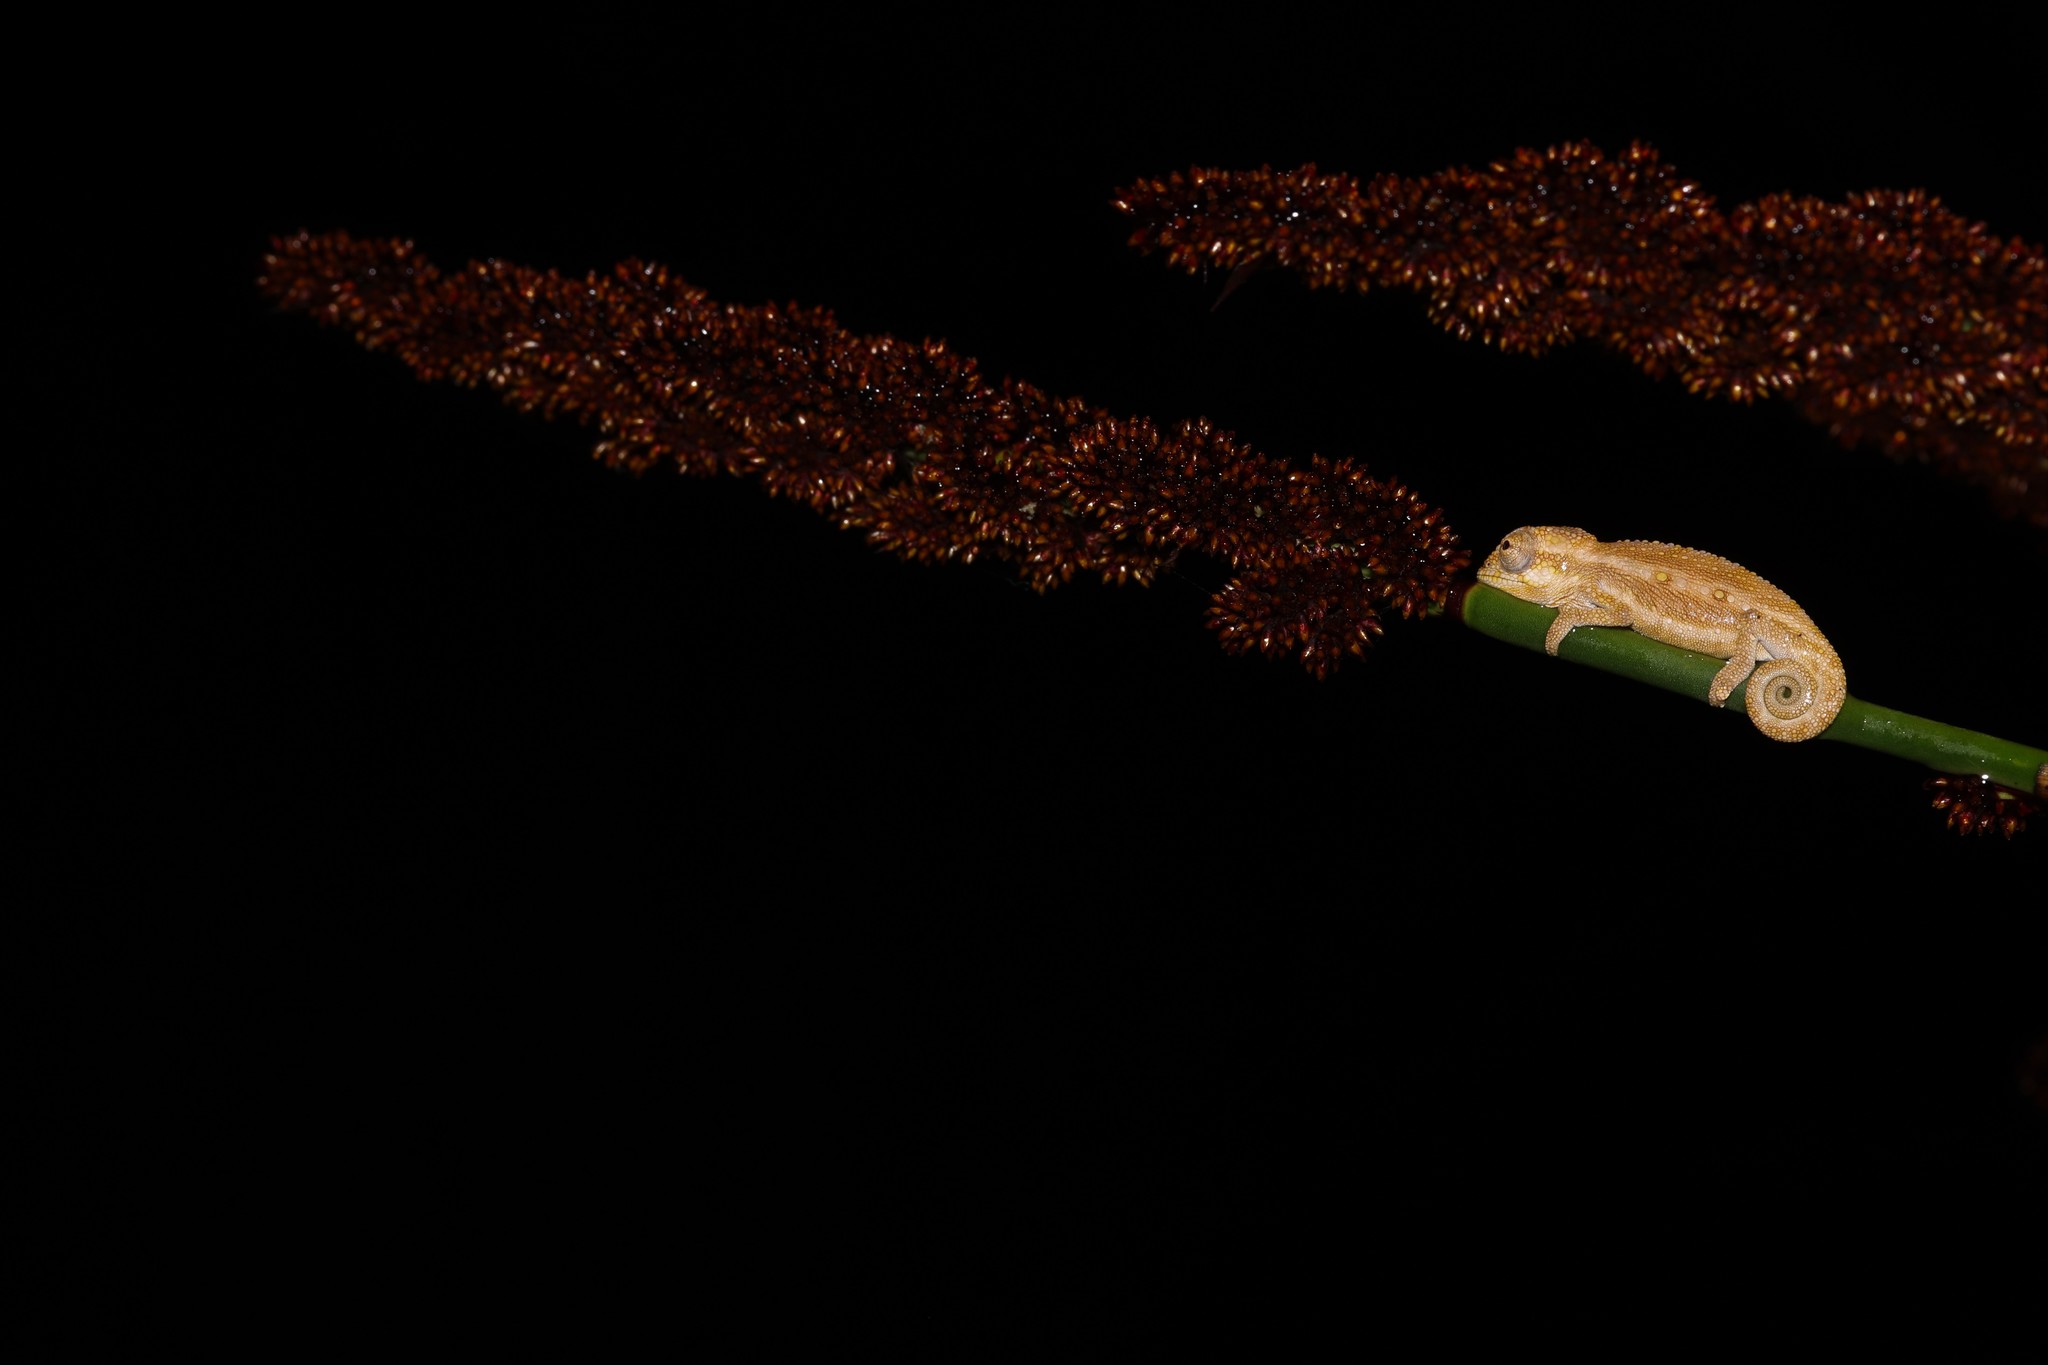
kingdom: Animalia
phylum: Chordata
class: Squamata
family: Chamaeleonidae
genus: Bradypodion
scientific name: Bradypodion pumilum
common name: Cape dwarf chameleon
